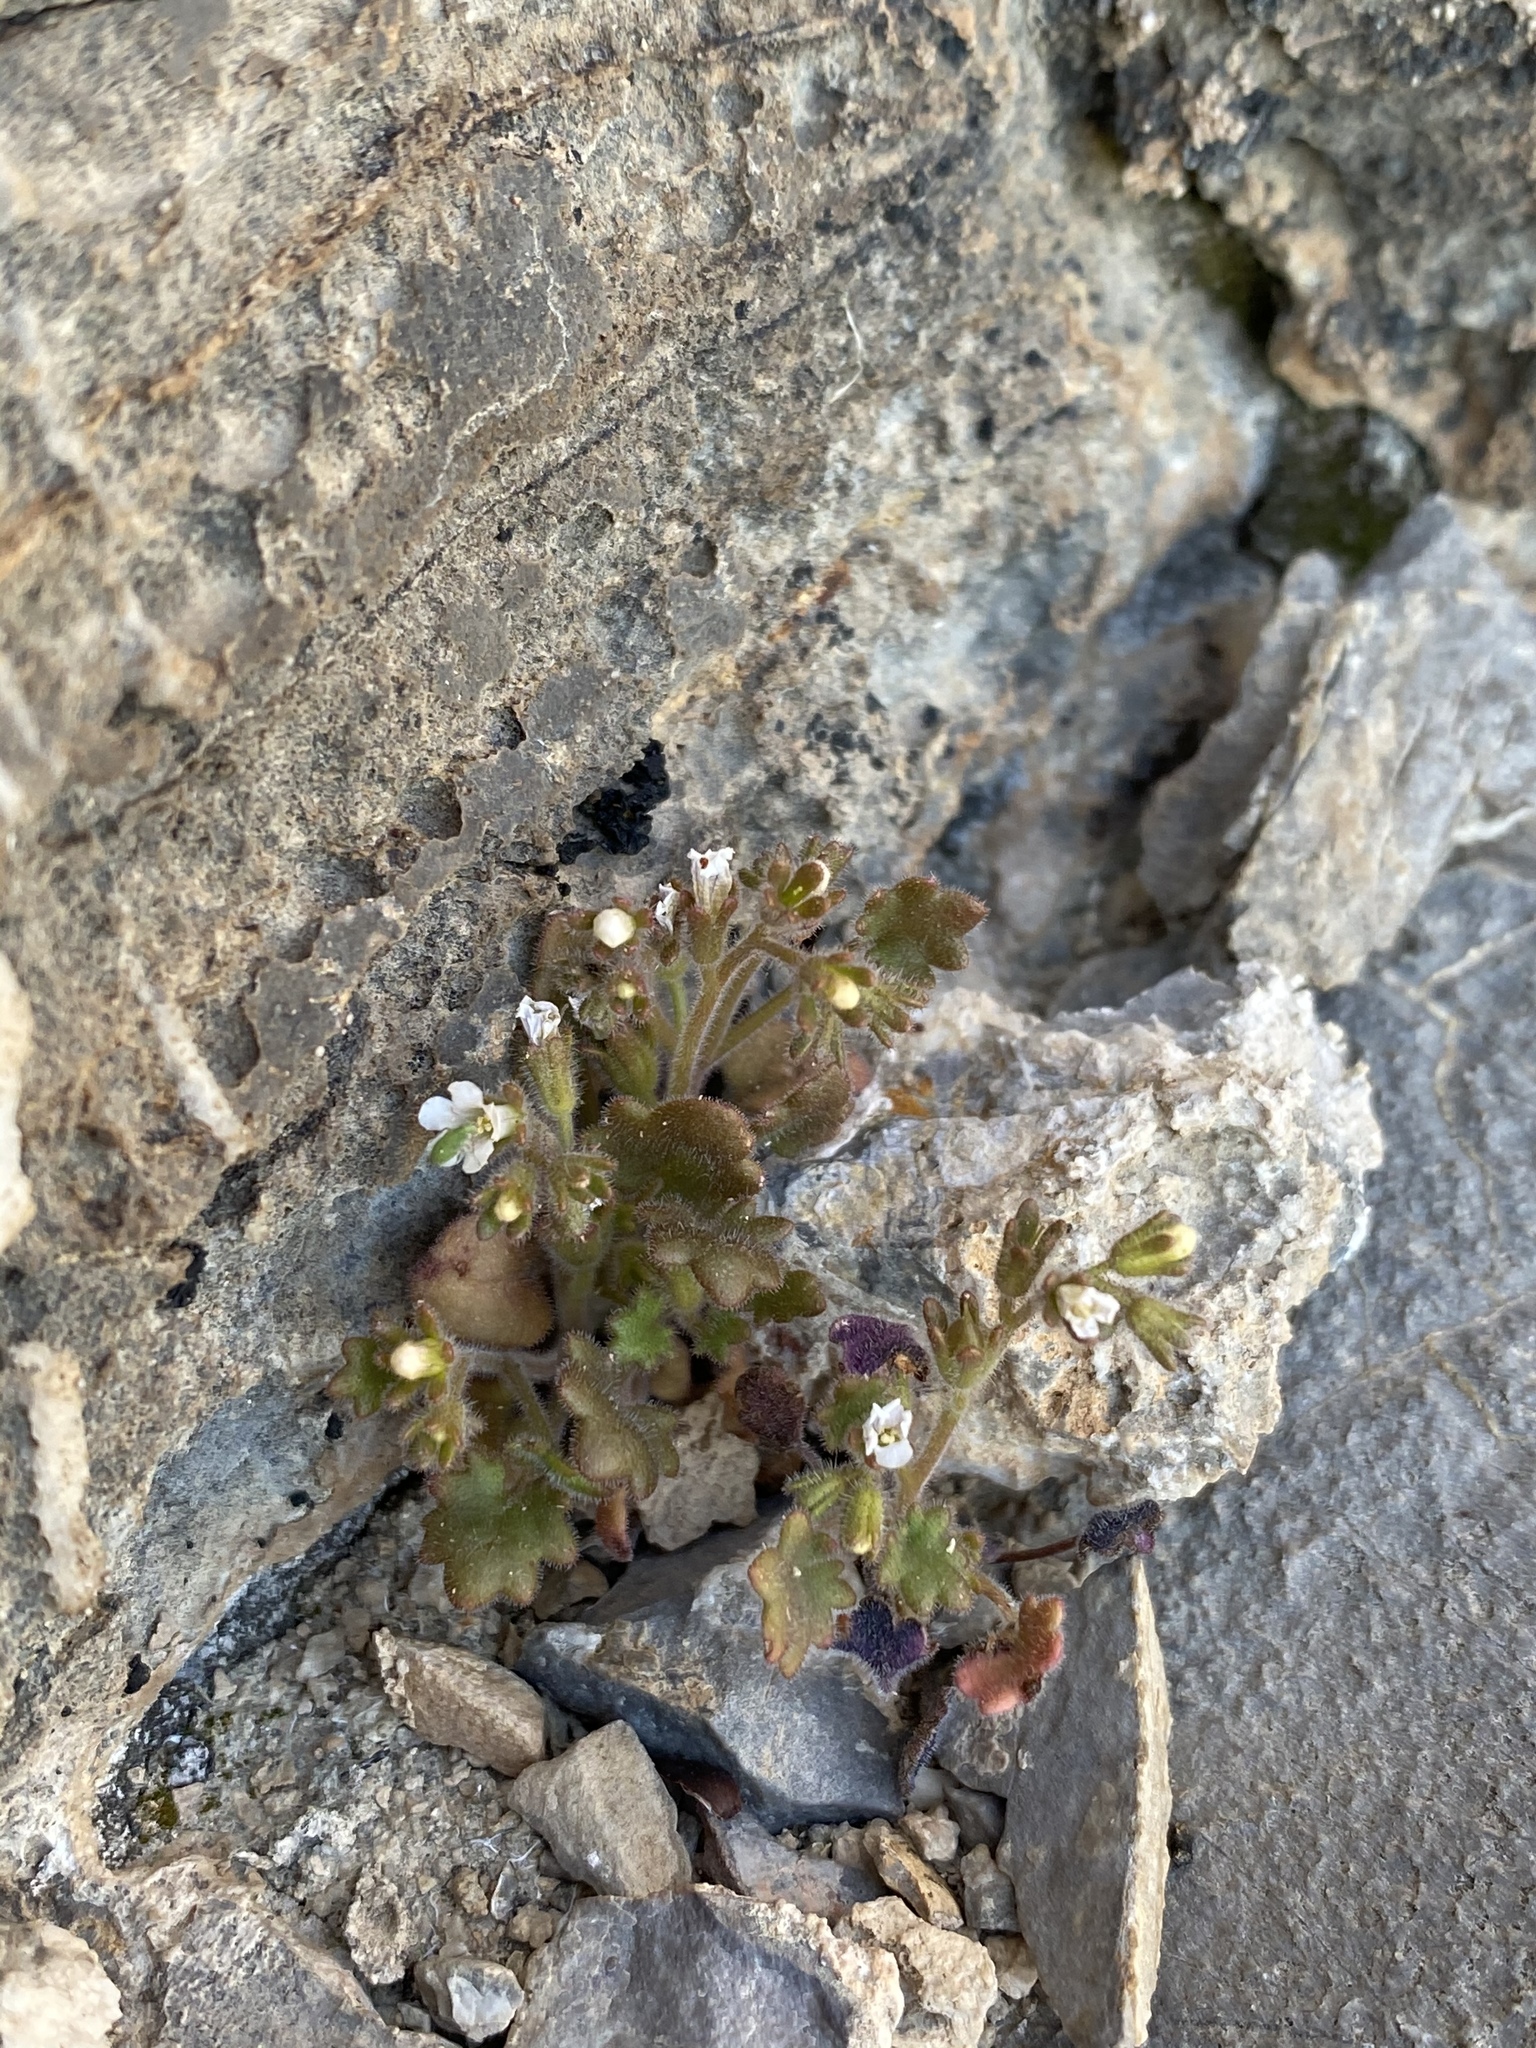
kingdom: Plantae
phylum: Tracheophyta
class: Magnoliopsida
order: Boraginales
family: Hydrophyllaceae
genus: Phacelia
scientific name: Phacelia rotundifolia
